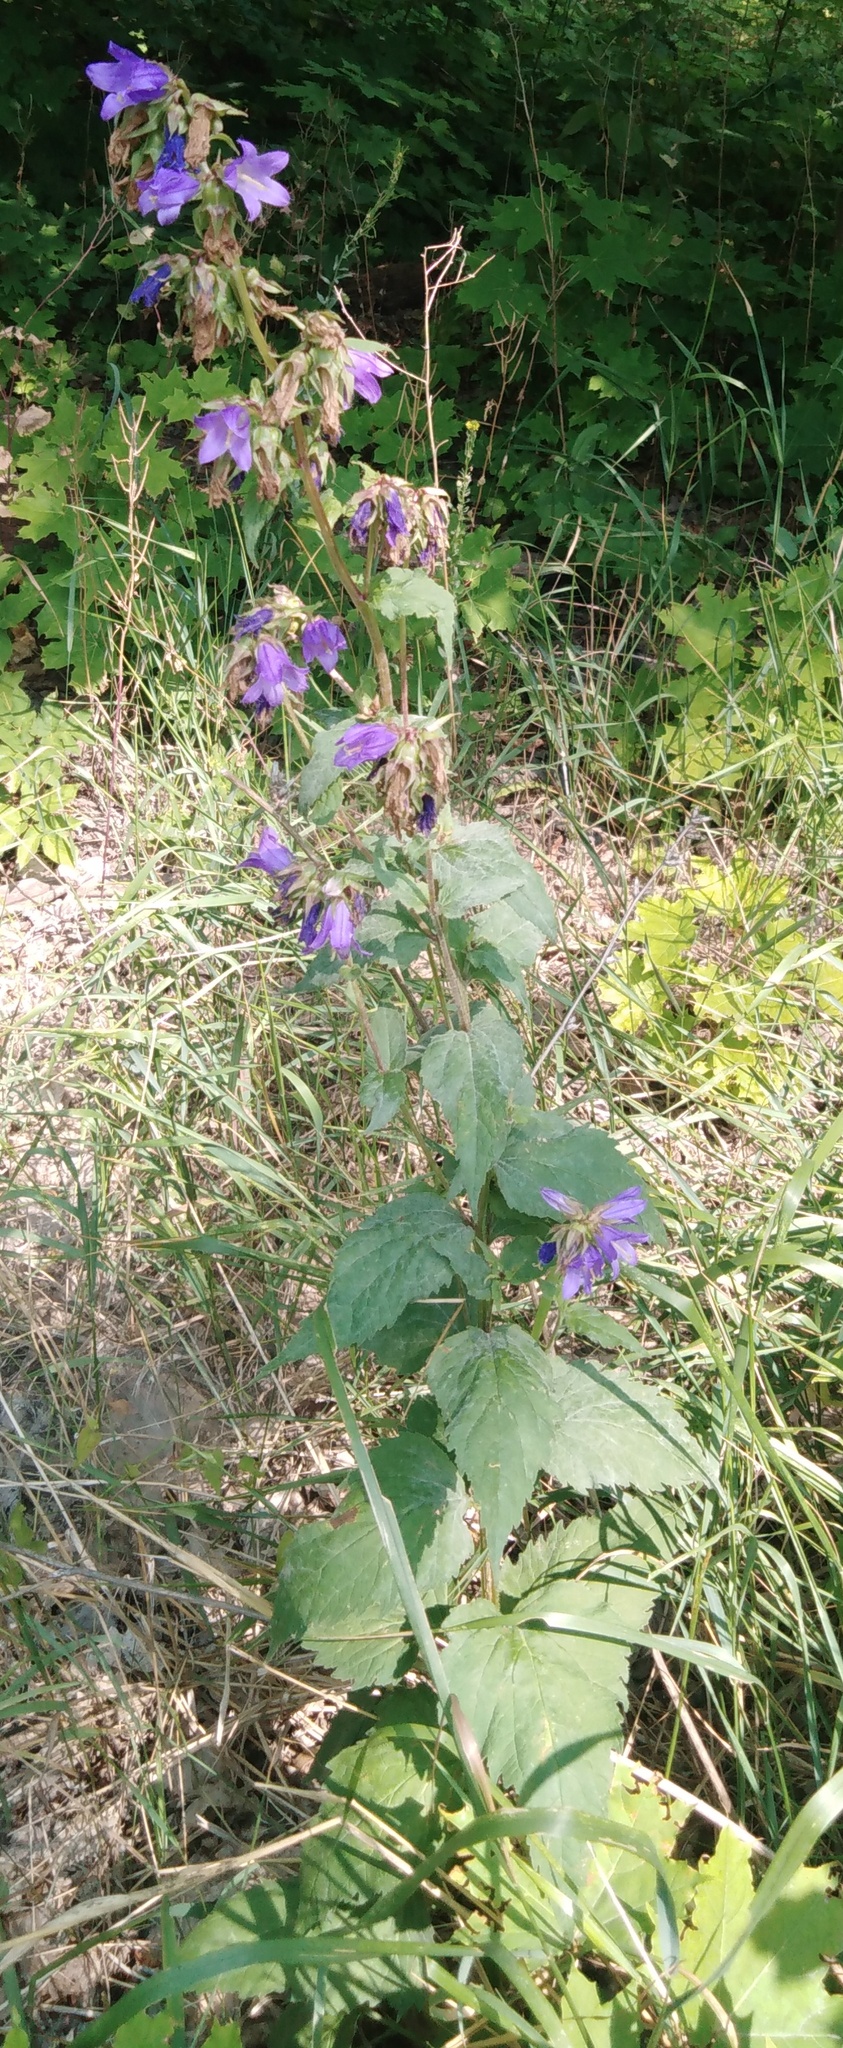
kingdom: Plantae
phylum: Tracheophyta
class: Magnoliopsida
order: Asterales
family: Campanulaceae
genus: Campanula
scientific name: Campanula trachelium
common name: Nettle-leaved bellflower
